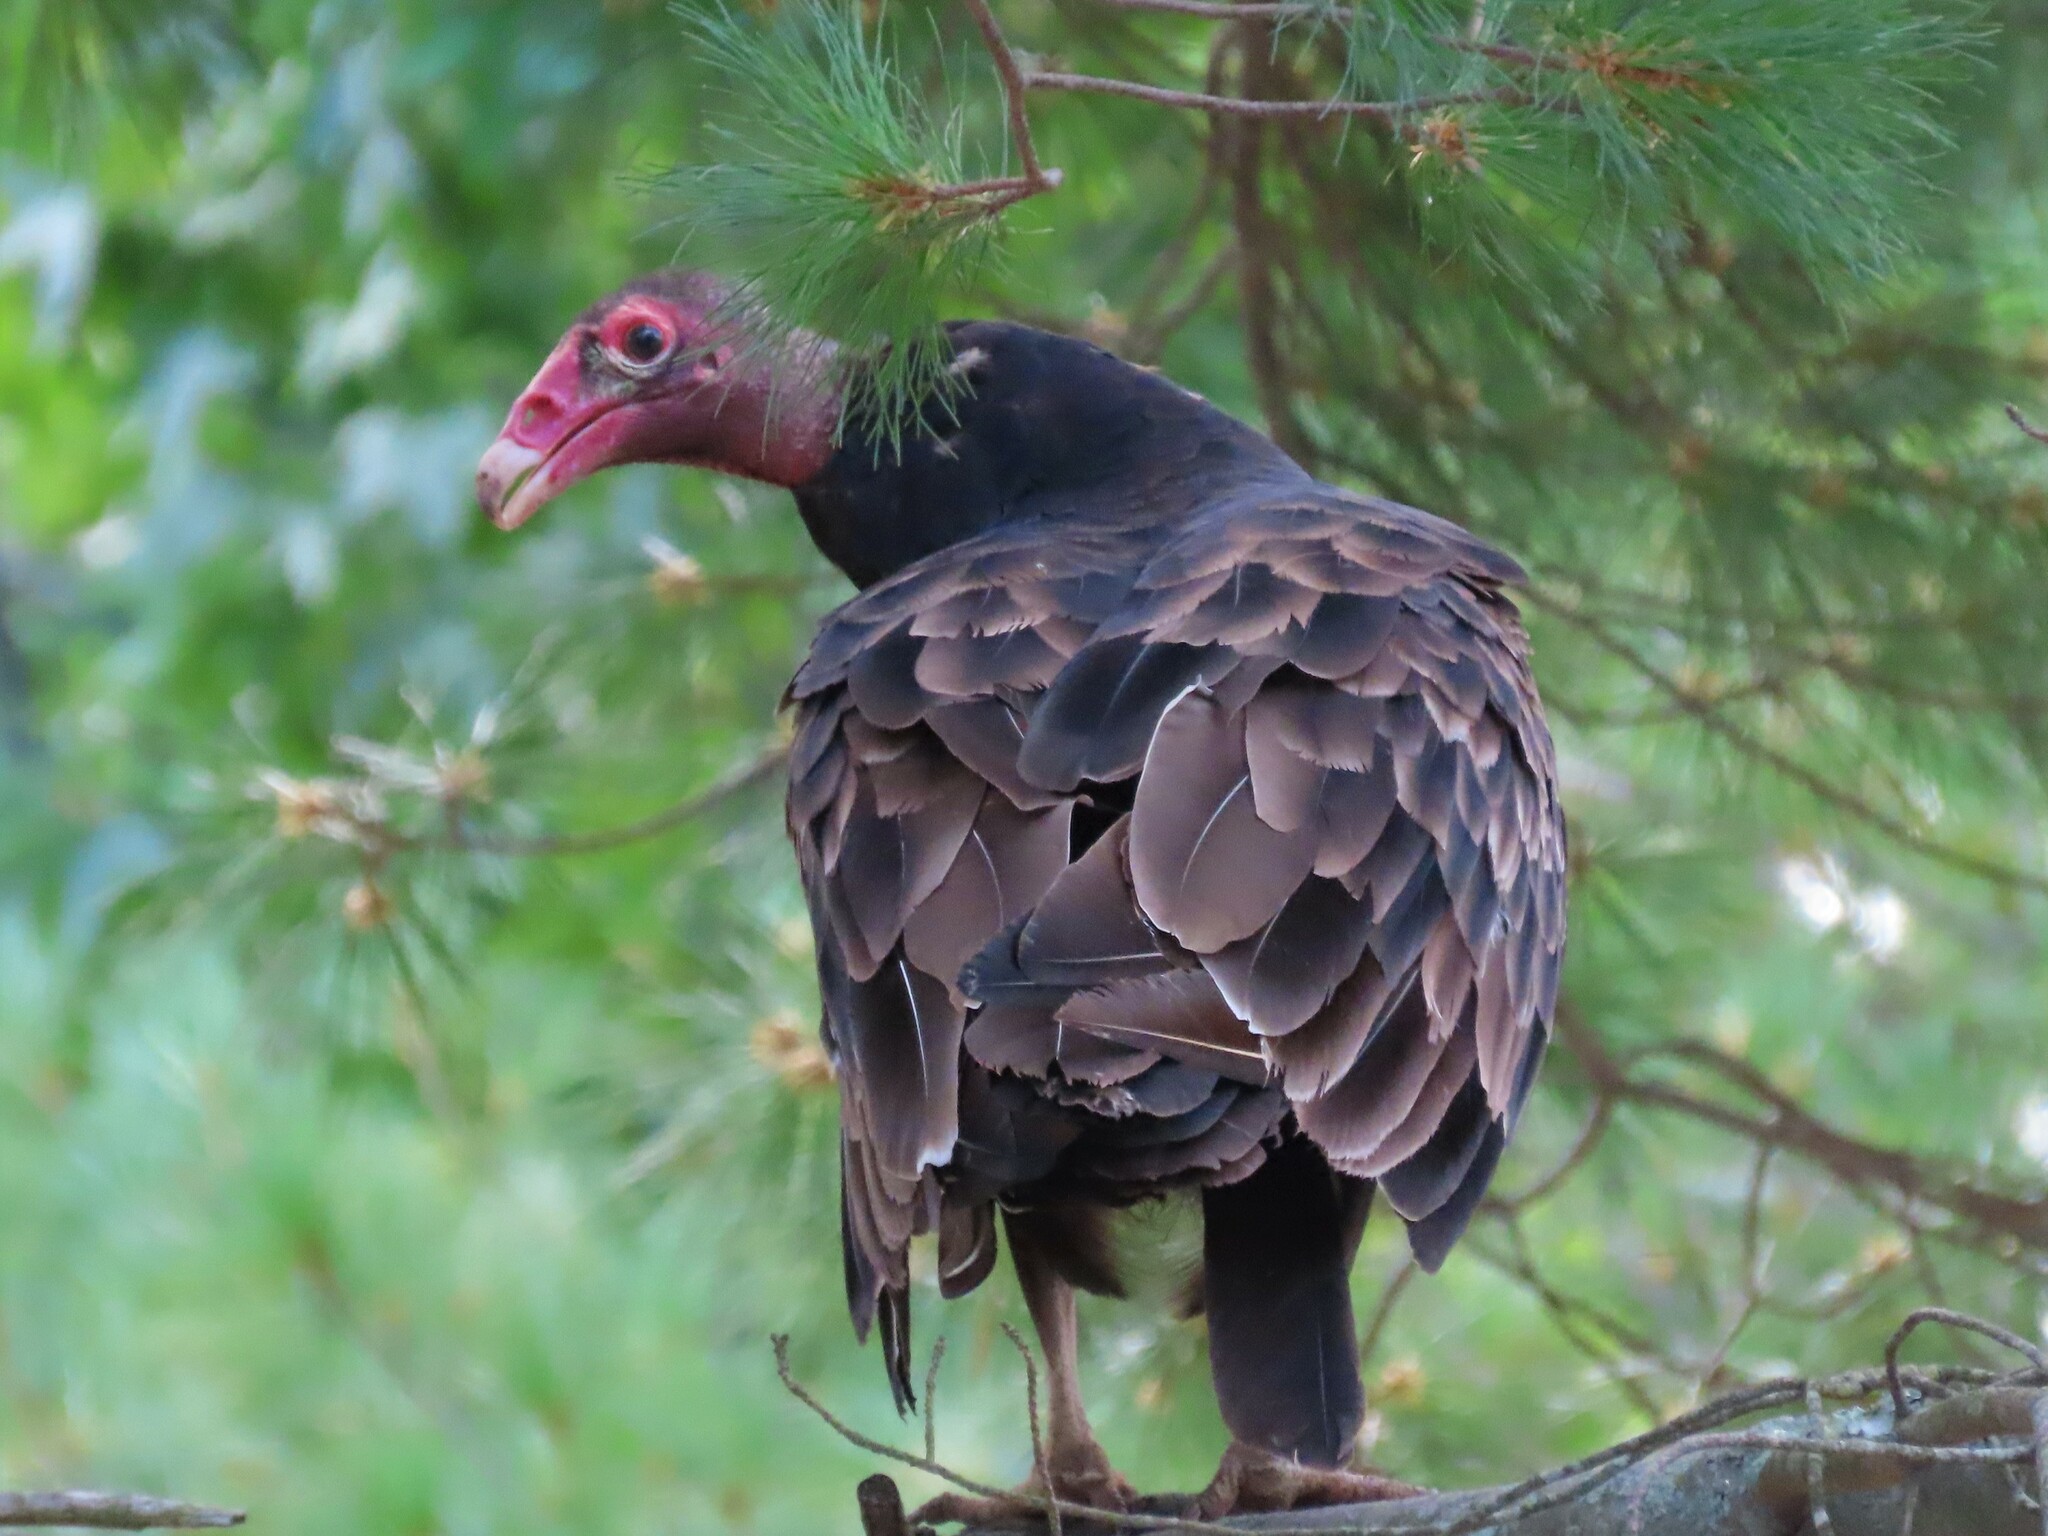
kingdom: Animalia
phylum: Chordata
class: Aves
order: Accipitriformes
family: Cathartidae
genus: Cathartes
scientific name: Cathartes aura
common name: Turkey vulture
